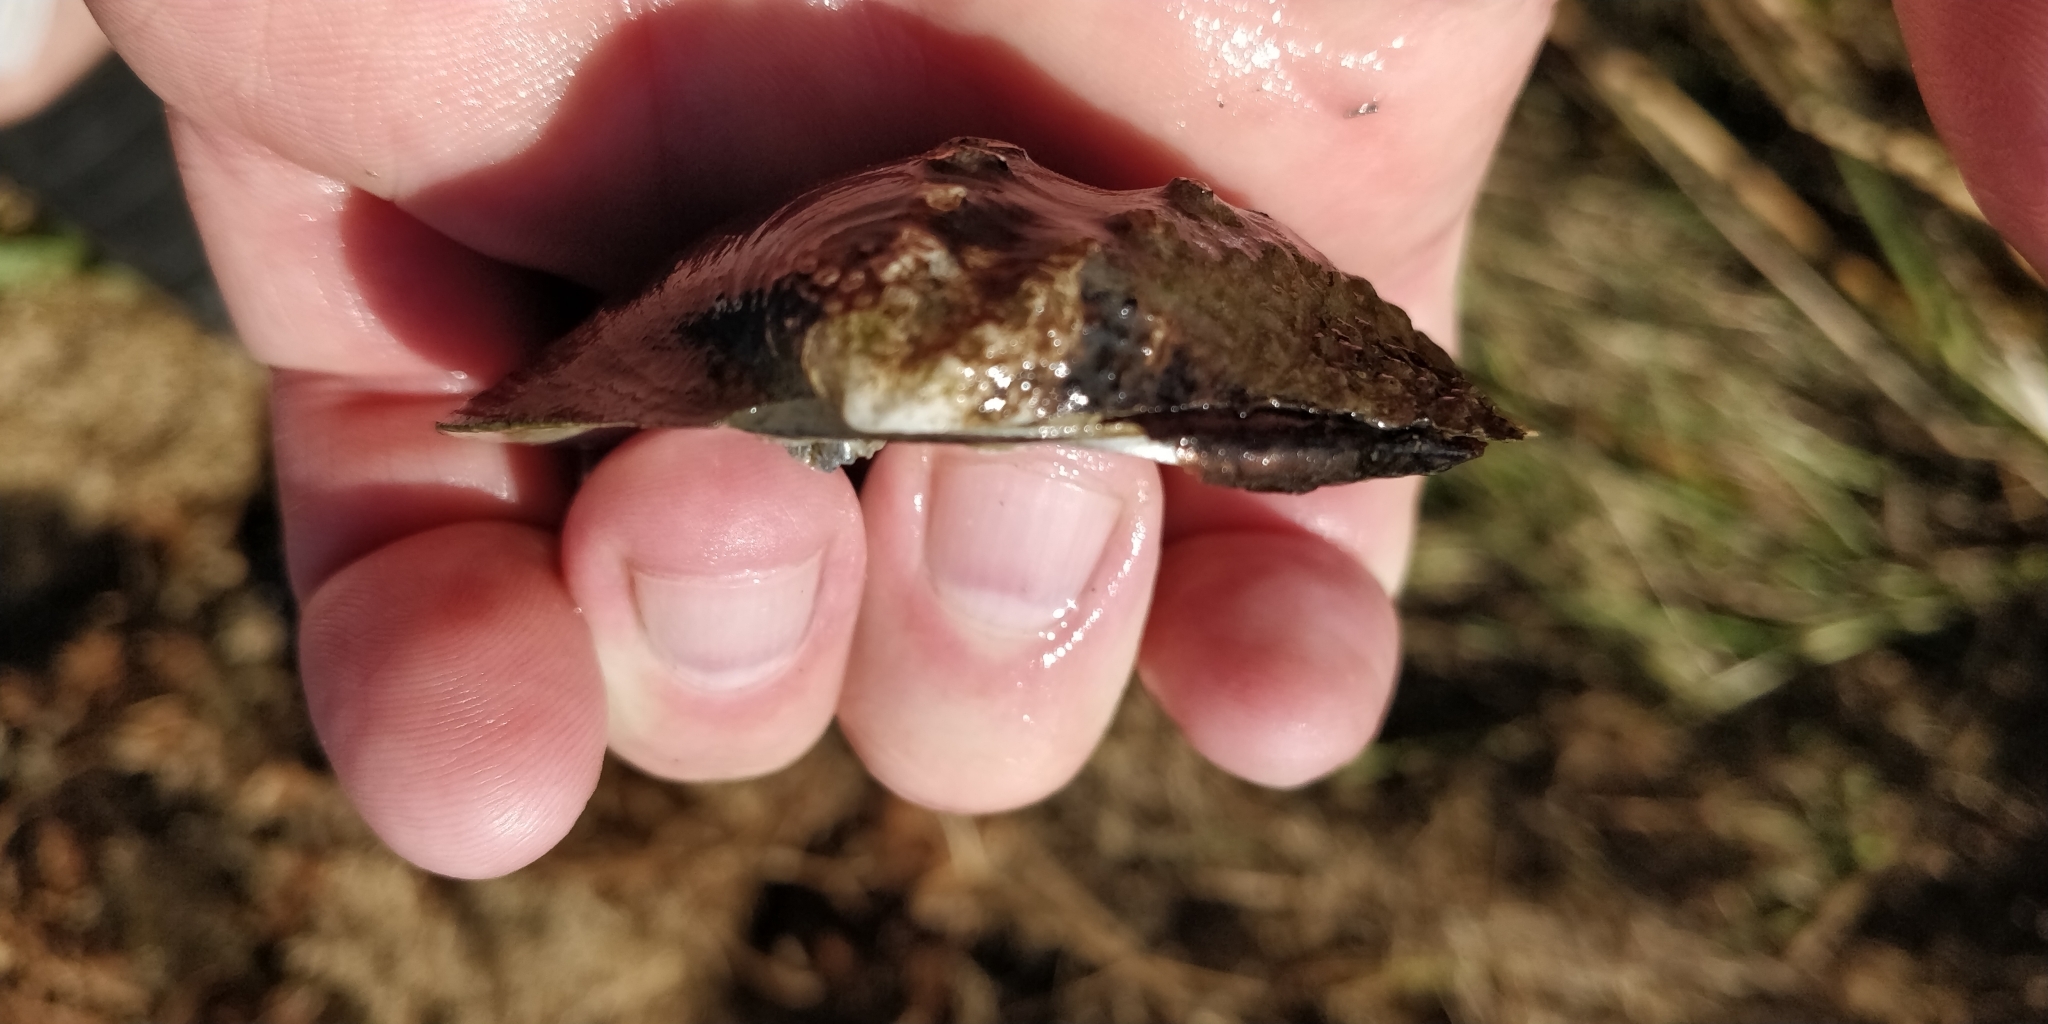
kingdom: Animalia
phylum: Mollusca
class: Bivalvia
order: Unionida
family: Unionidae
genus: Tritogonia
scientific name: Tritogonia nobilis
